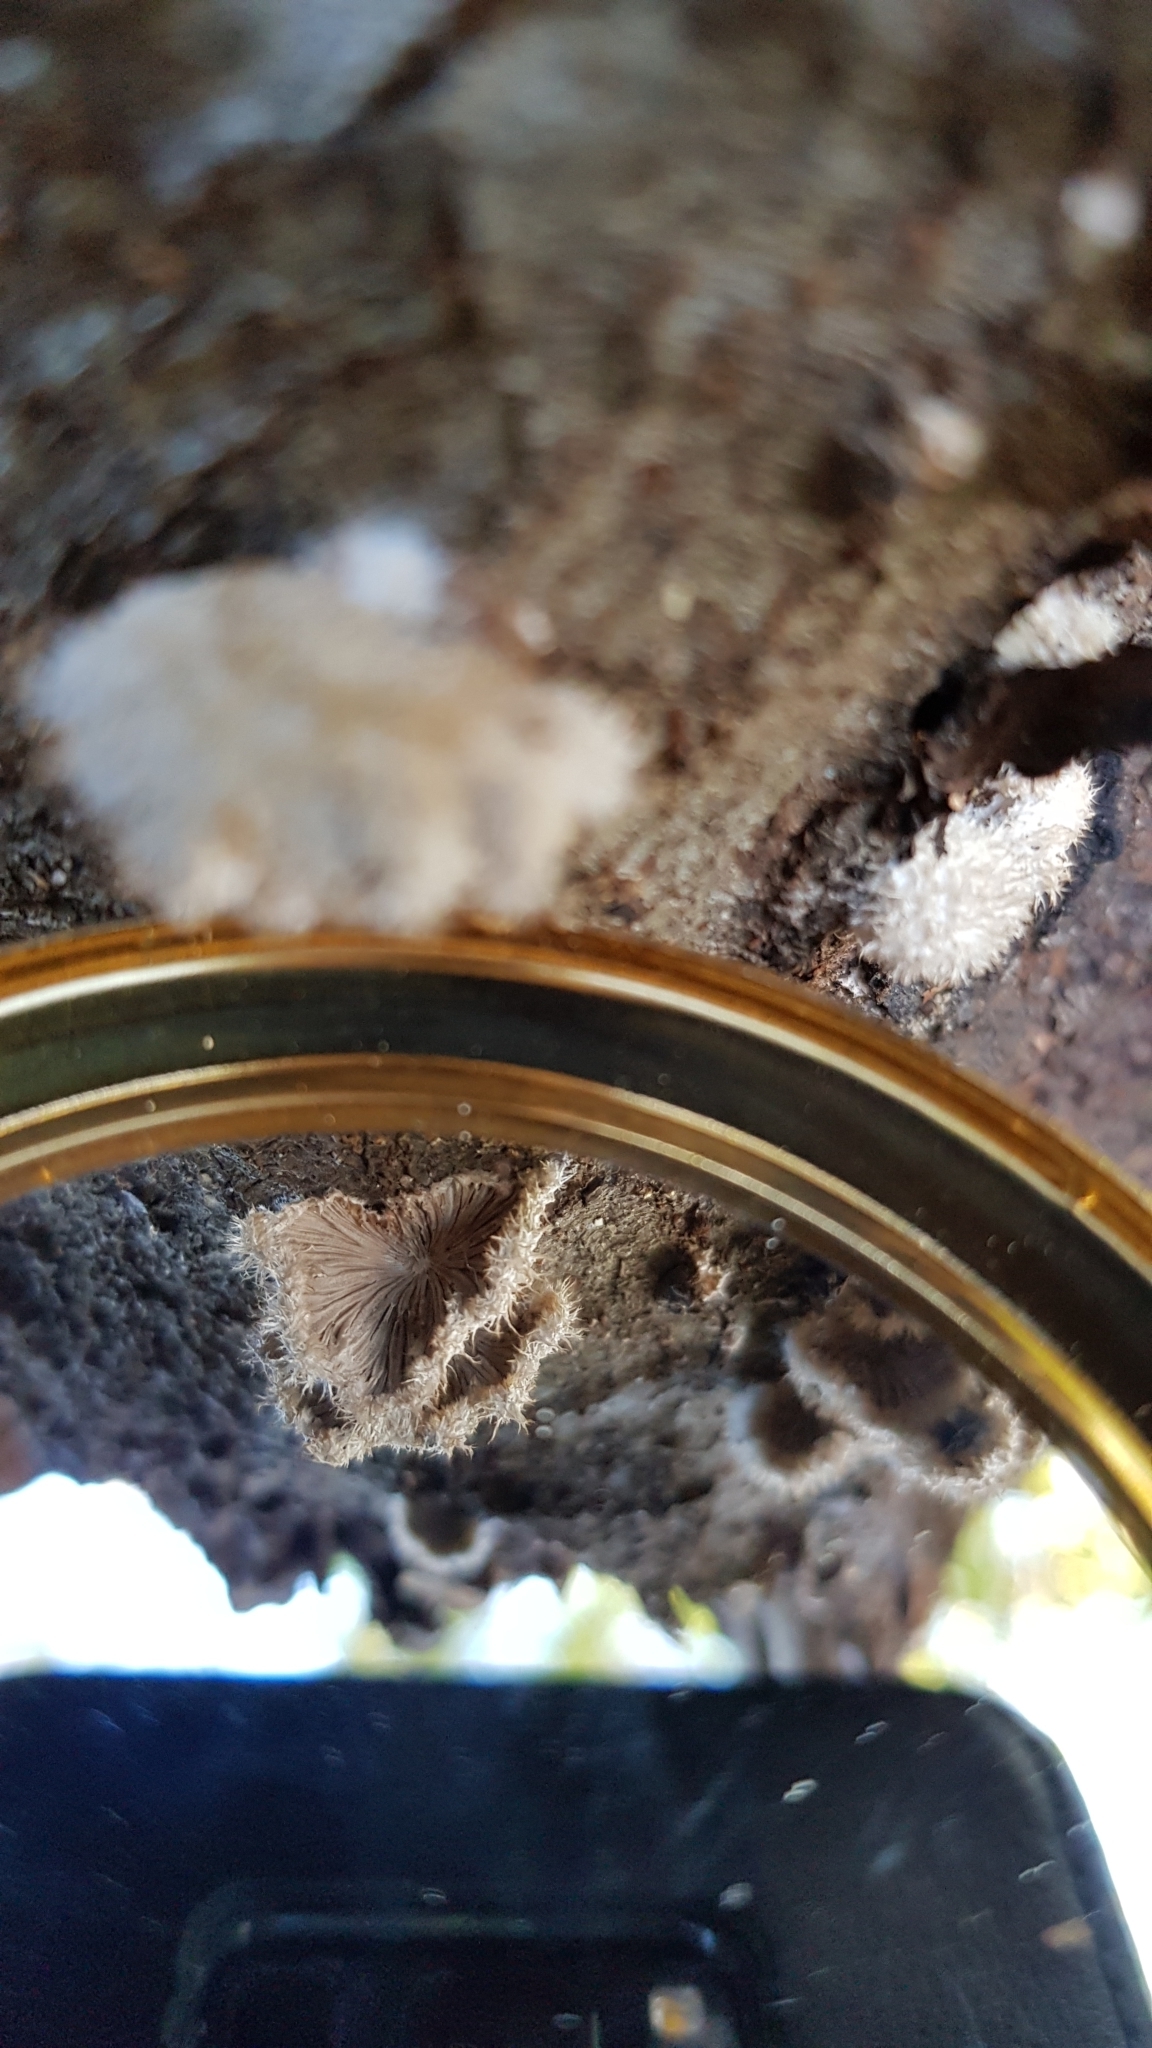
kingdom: Fungi
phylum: Basidiomycota
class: Agaricomycetes
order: Agaricales
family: Schizophyllaceae
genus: Schizophyllum
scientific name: Schizophyllum commune
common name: Common porecrust
